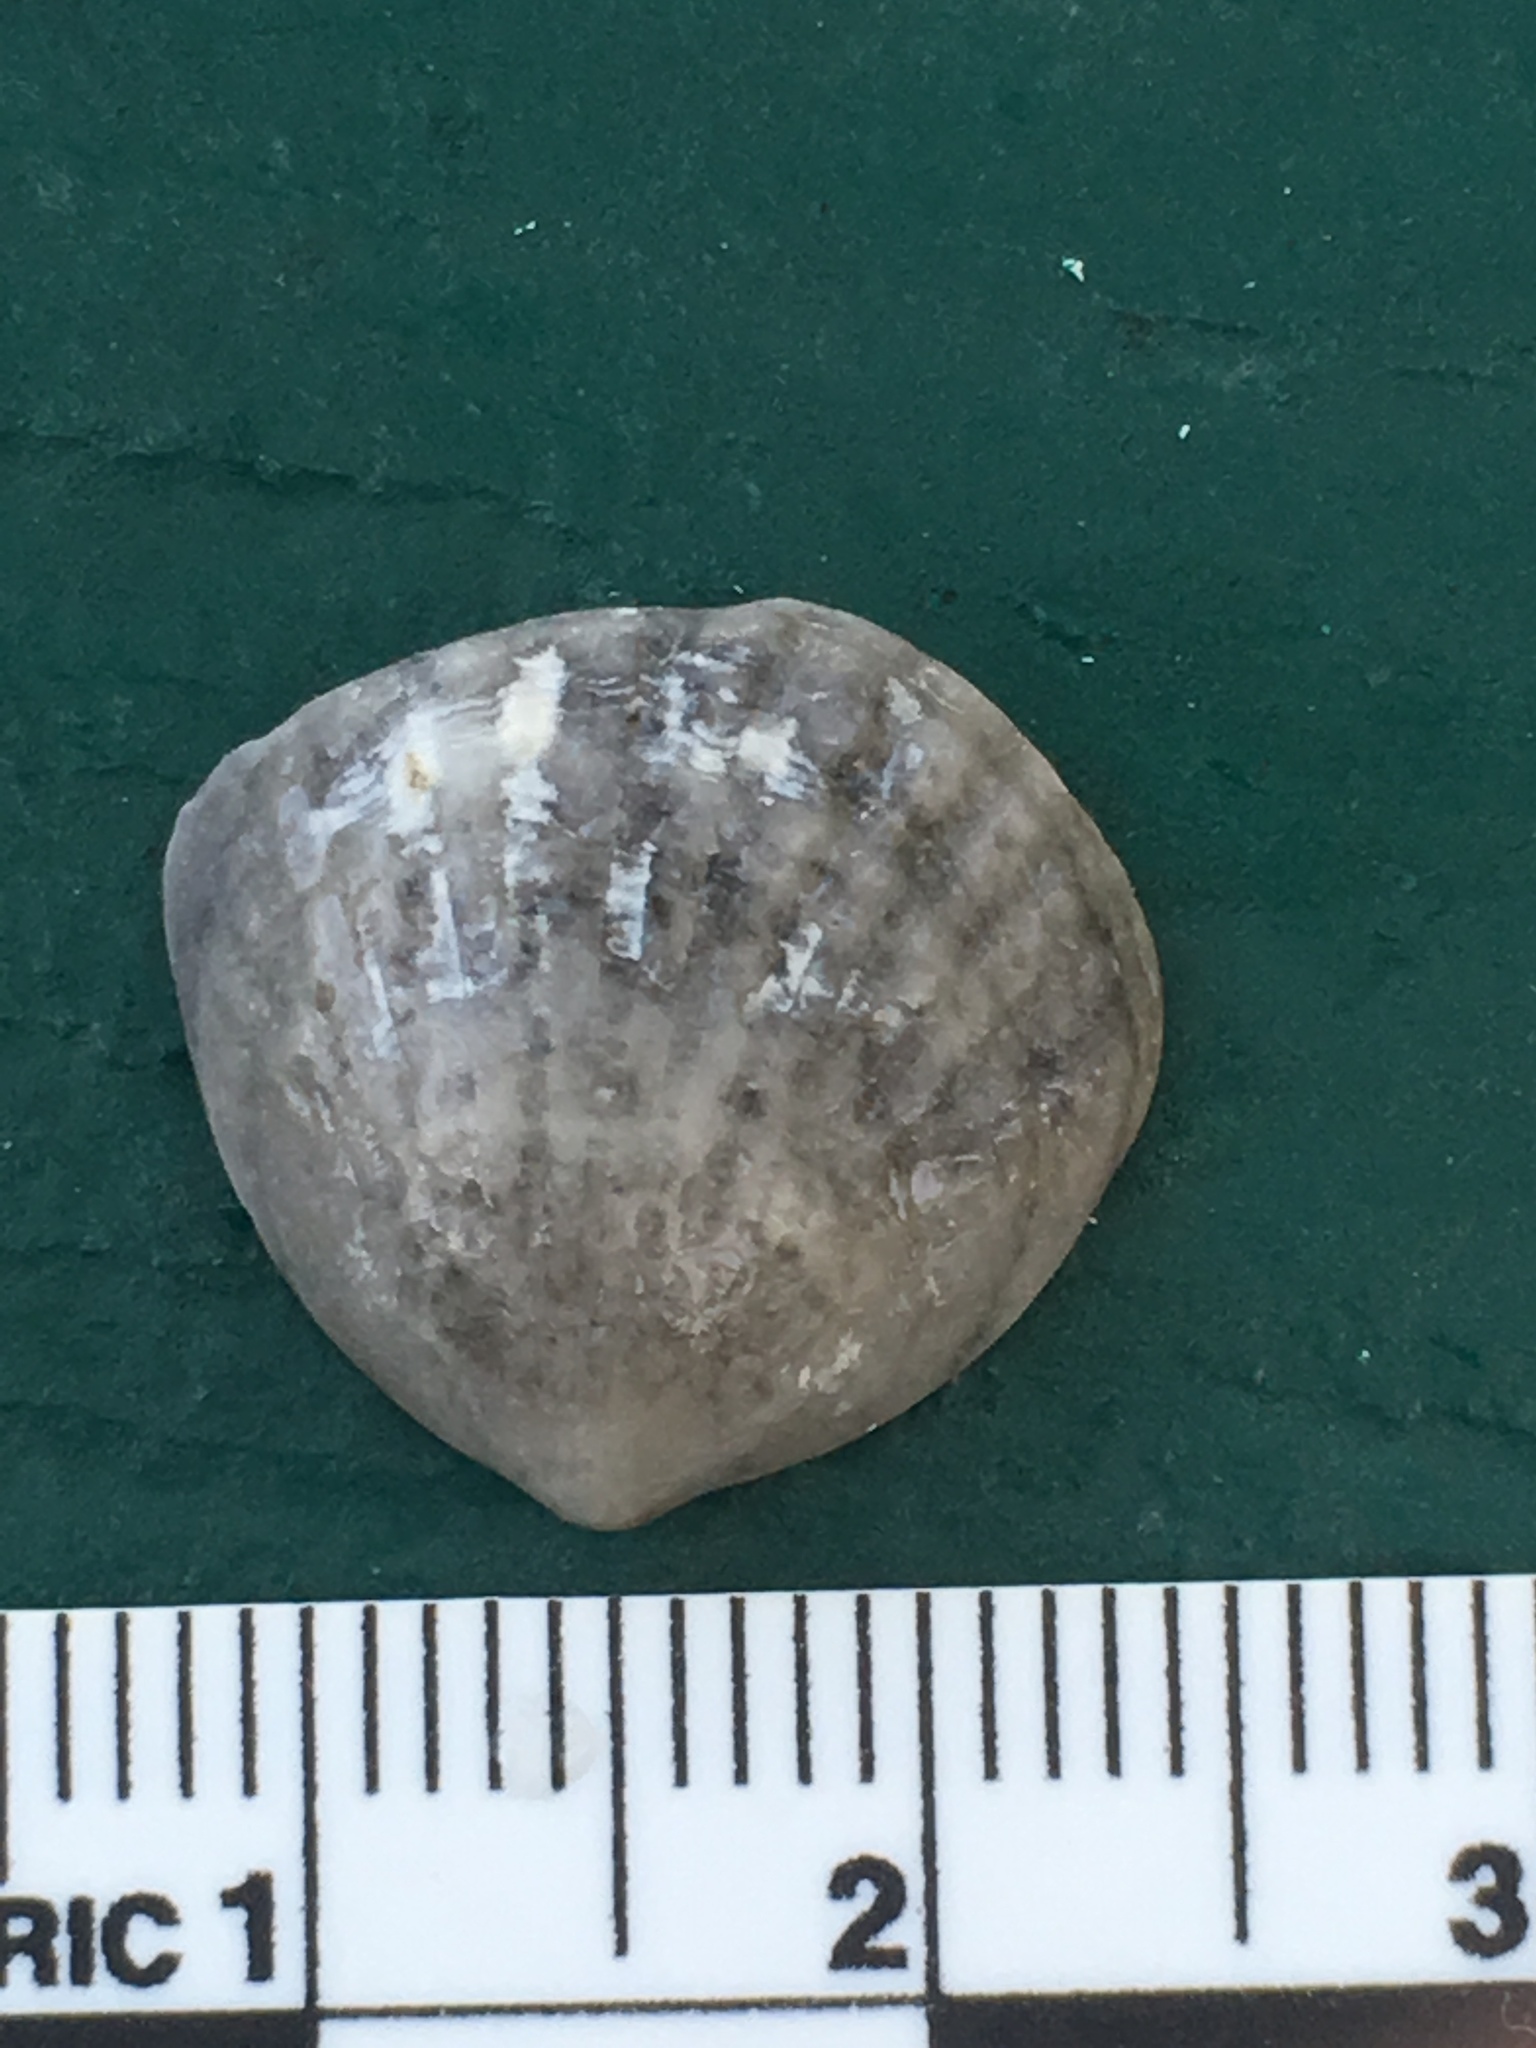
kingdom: Animalia
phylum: Mollusca
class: Bivalvia
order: Arcida
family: Glycymerididae
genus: Tucetona
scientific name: Tucetona pectinata
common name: Comb bittersweet
